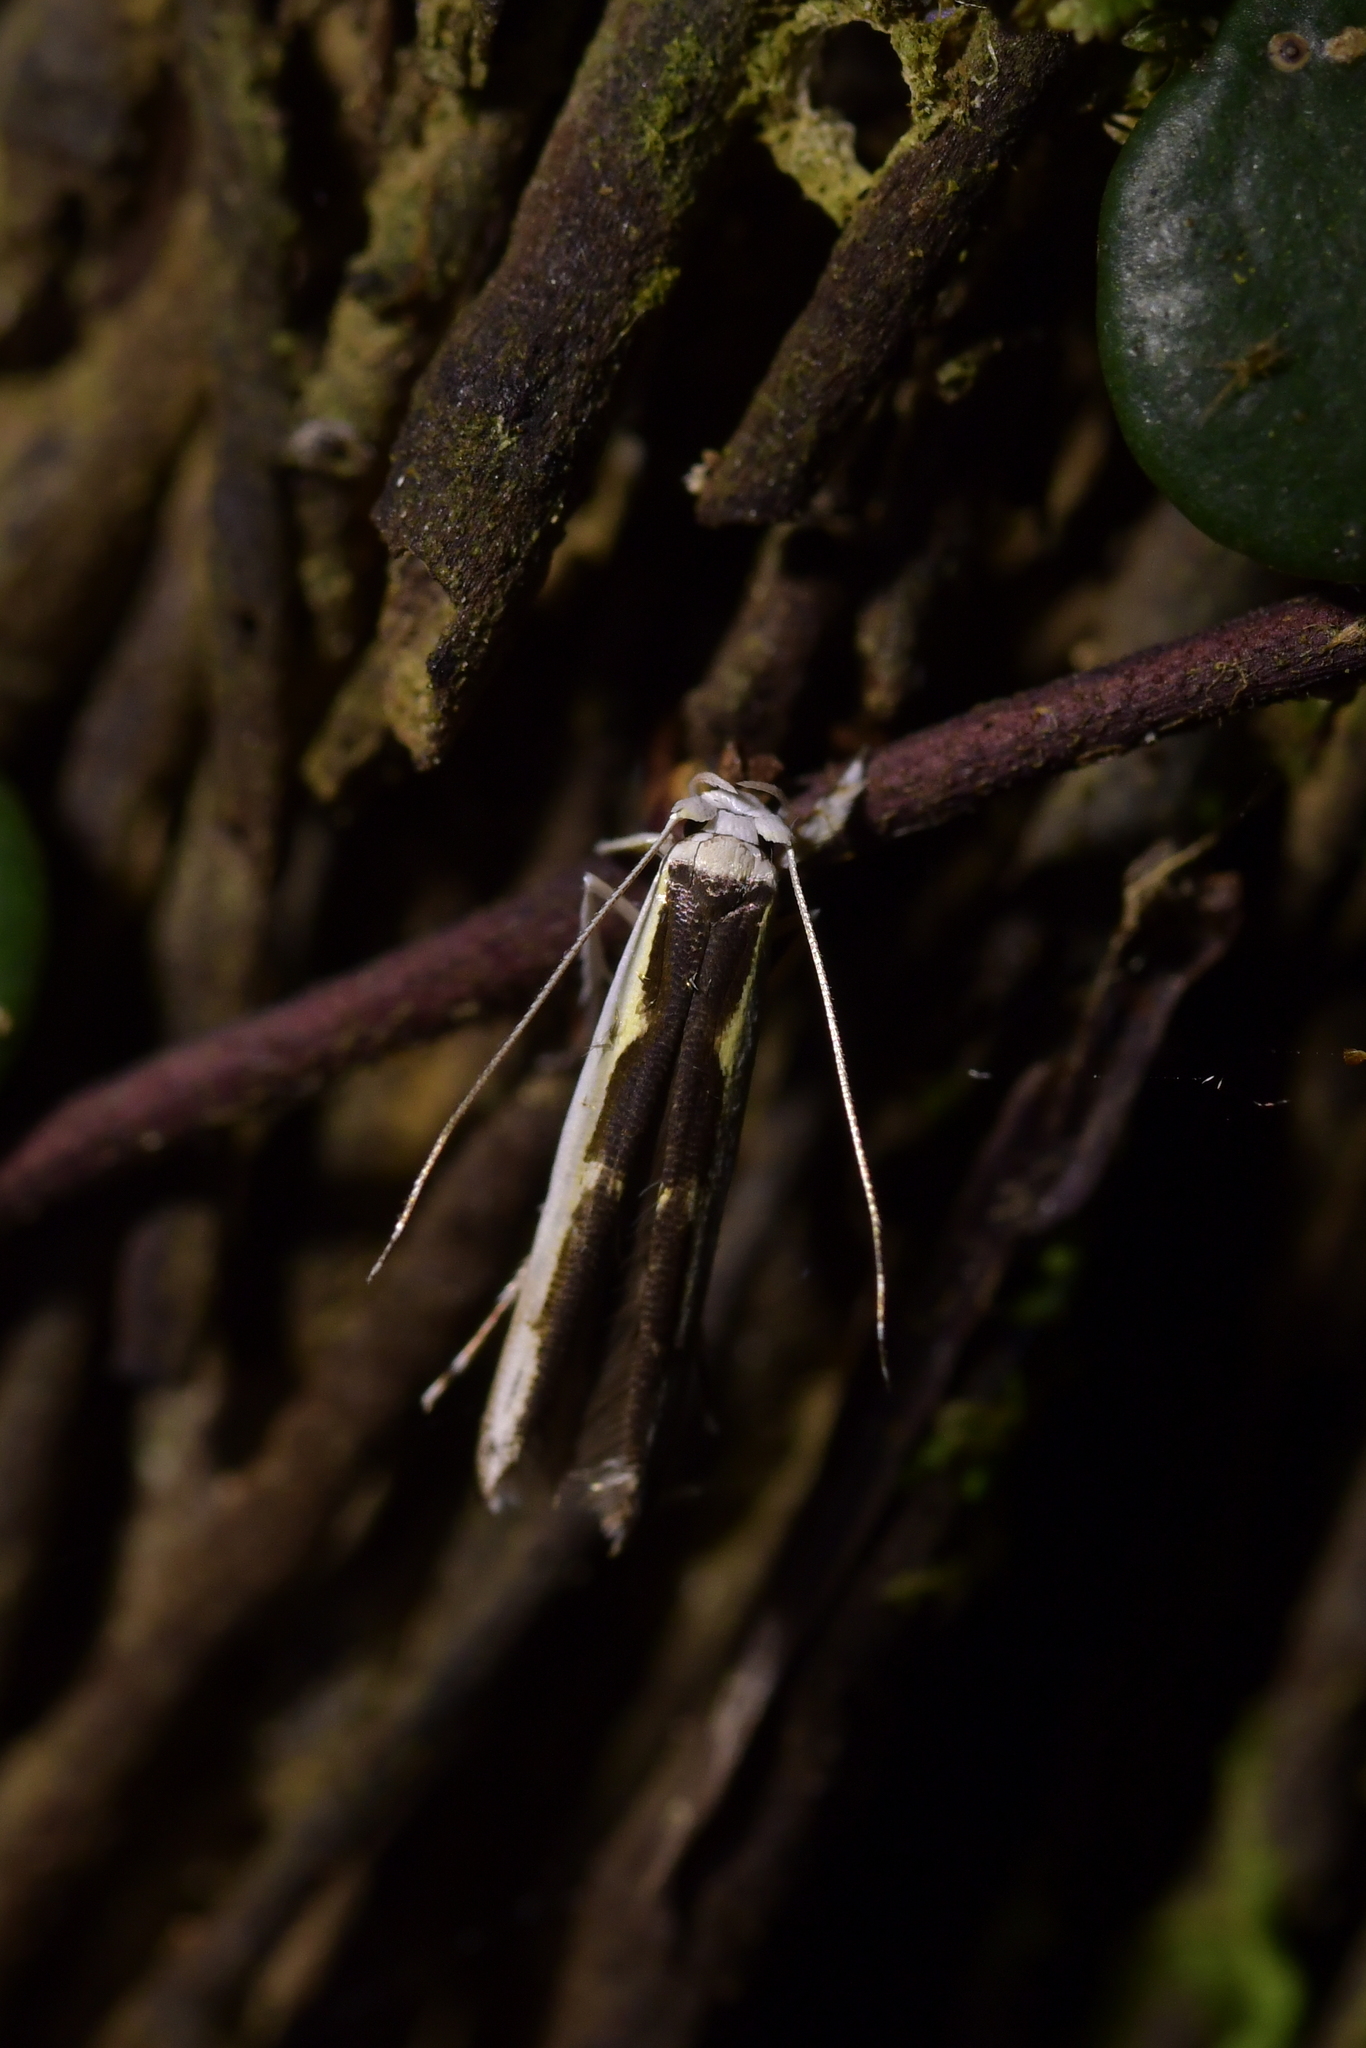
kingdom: Animalia
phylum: Arthropoda
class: Insecta
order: Lepidoptera
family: Roeslerstammiidae
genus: Vanicela
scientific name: Vanicela disjunctella
